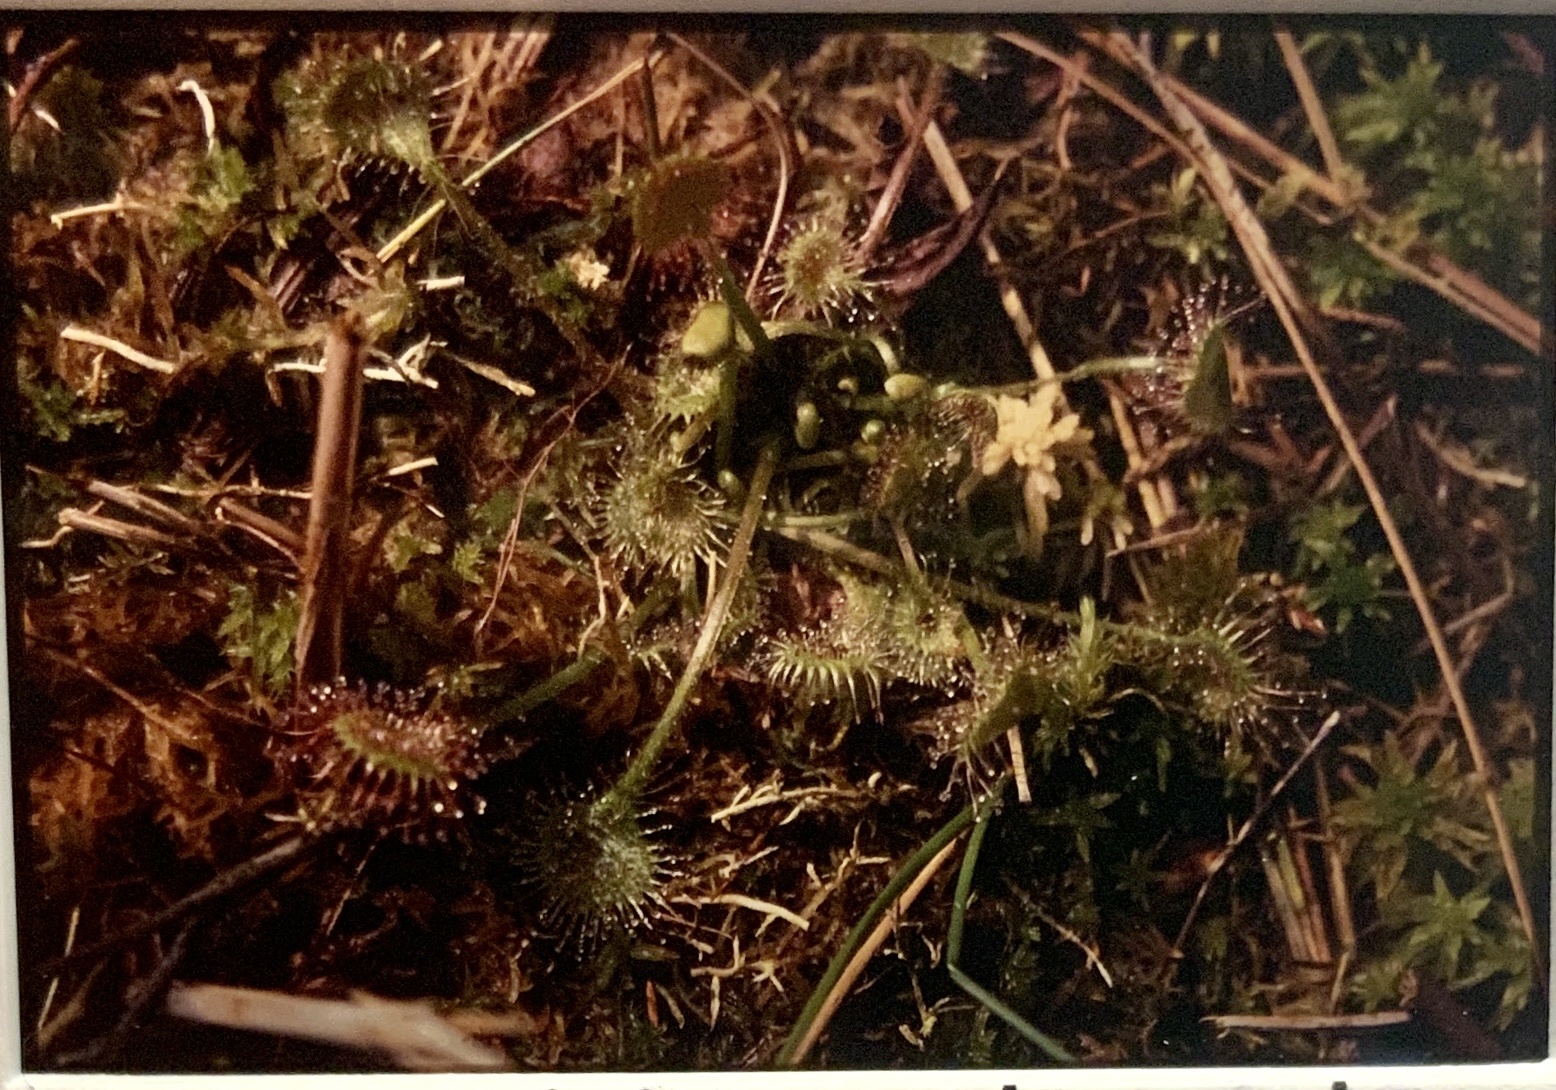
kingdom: Plantae
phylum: Tracheophyta
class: Magnoliopsida
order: Caryophyllales
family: Droseraceae
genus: Drosera
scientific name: Drosera rotundifolia
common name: Round-leaved sundew
